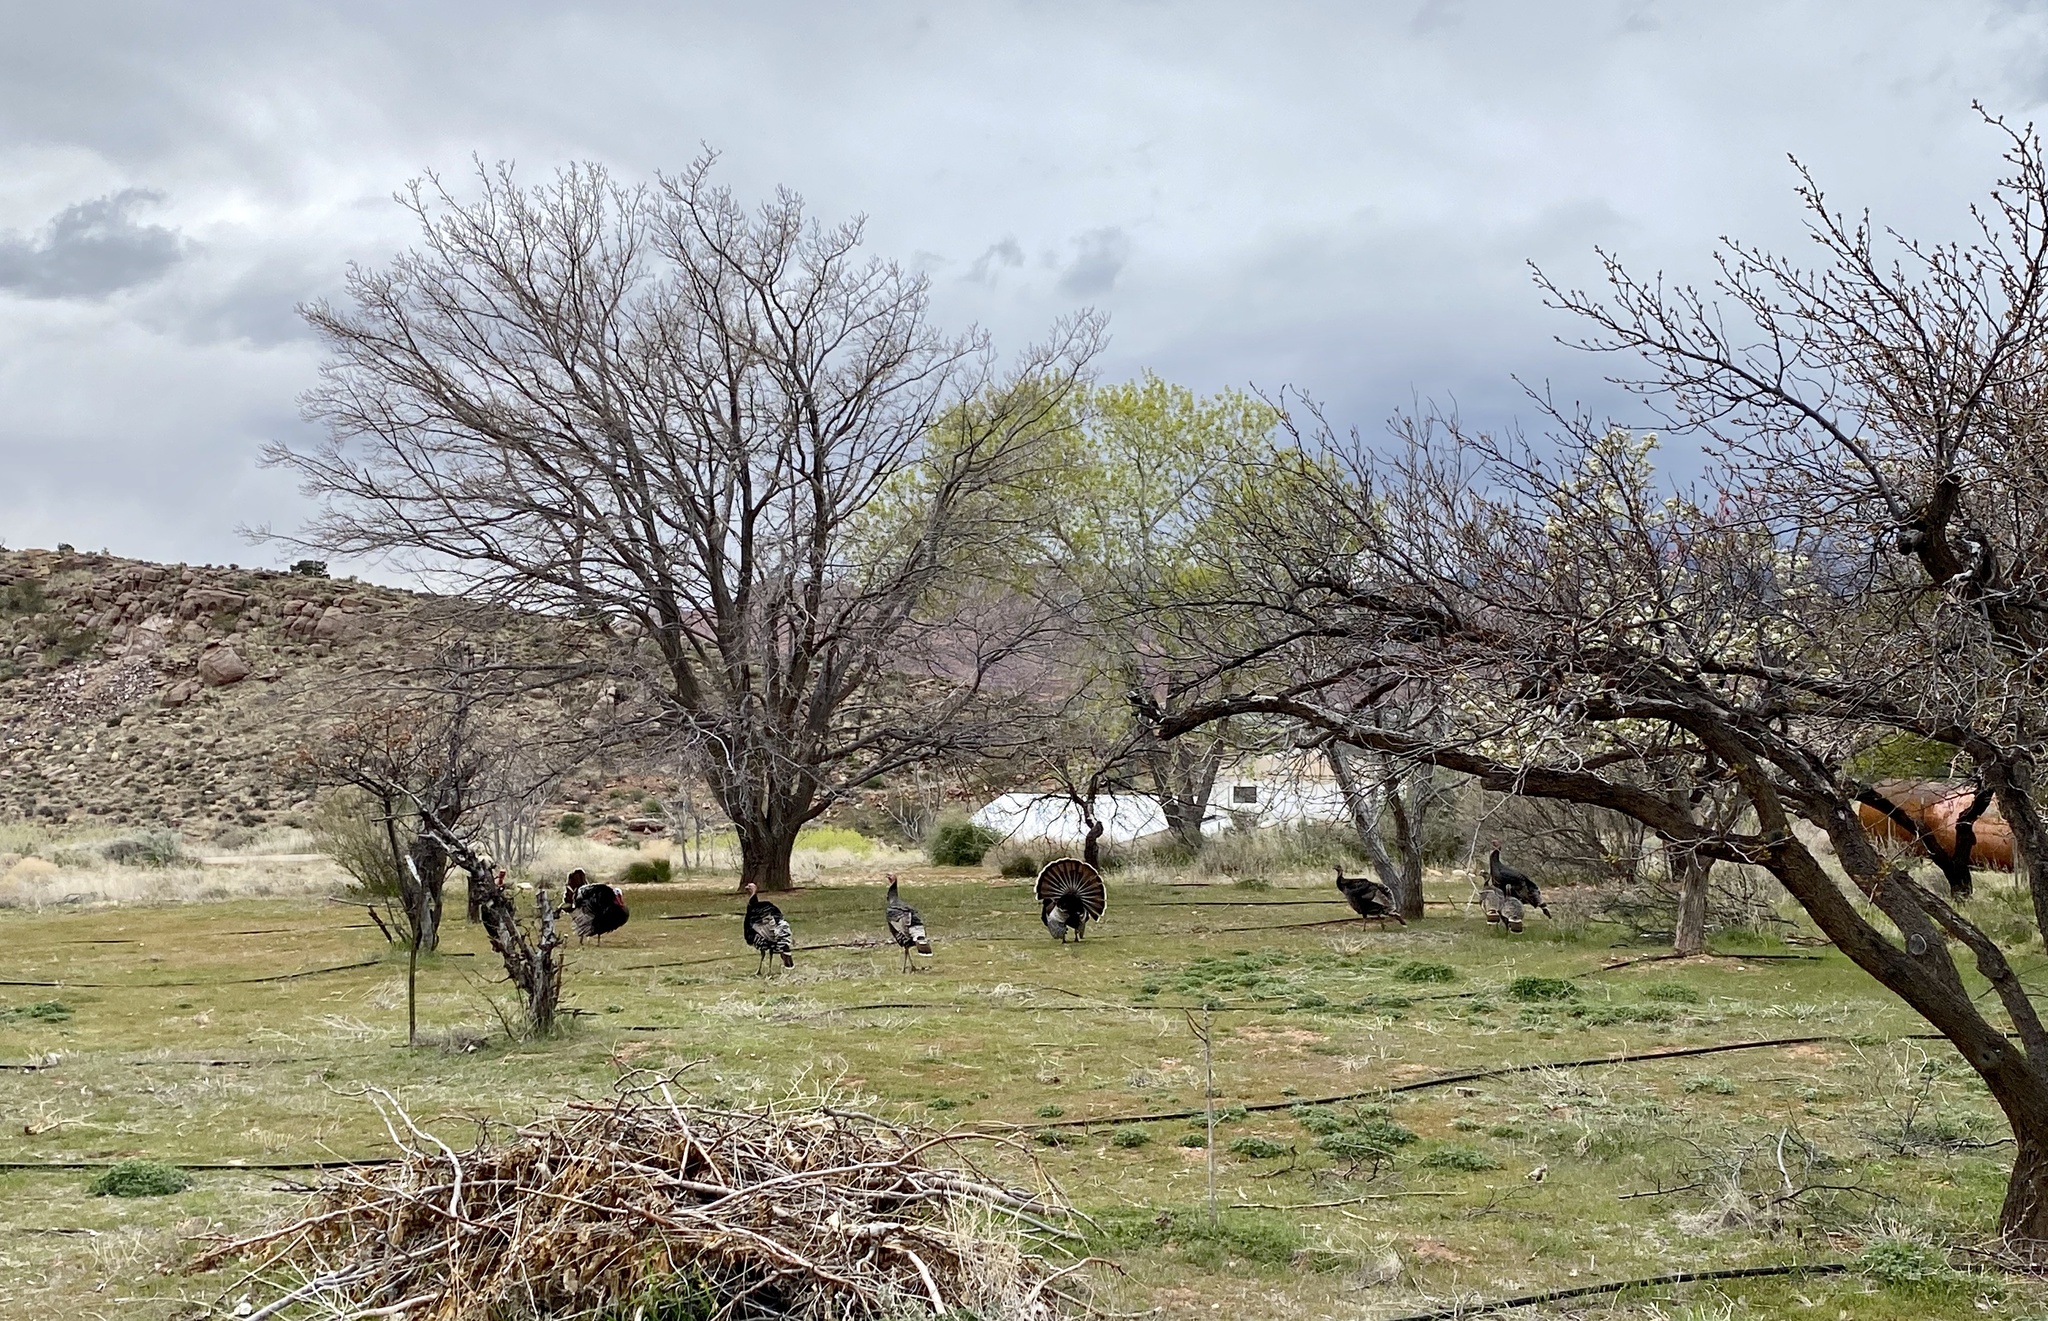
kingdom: Animalia
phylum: Chordata
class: Aves
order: Galliformes
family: Phasianidae
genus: Meleagris
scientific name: Meleagris gallopavo
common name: Wild turkey
